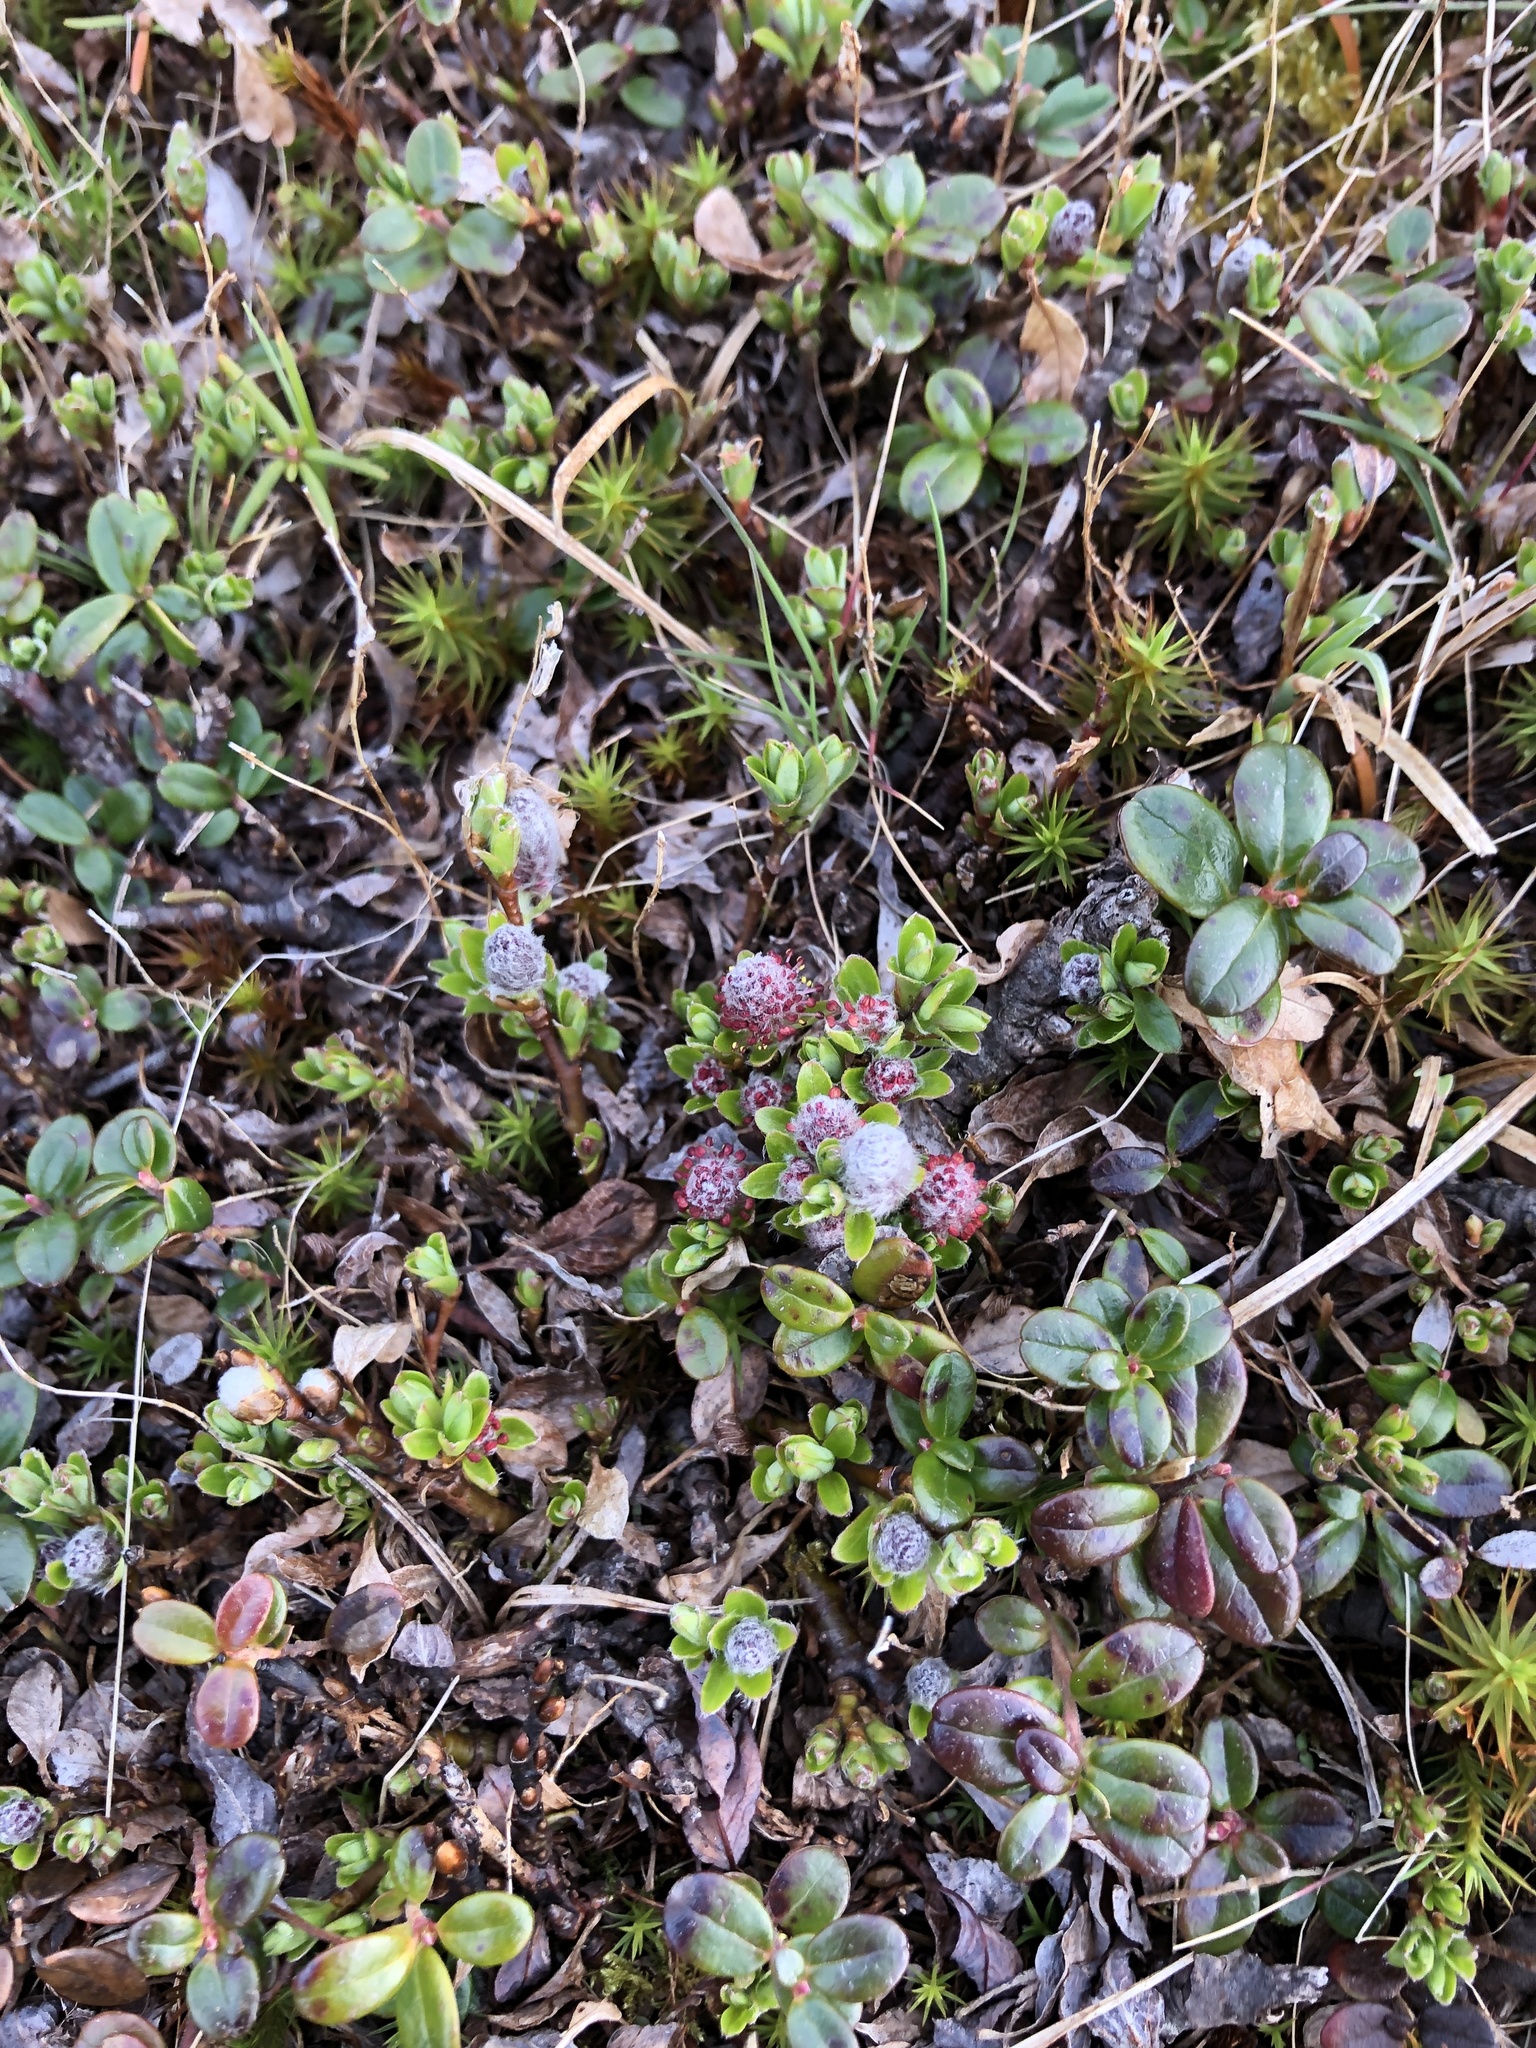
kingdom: Plantae
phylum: Tracheophyta
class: Magnoliopsida
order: Malpighiales
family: Salicaceae
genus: Salix
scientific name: Salix uva-ursi
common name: Bearberry willow
